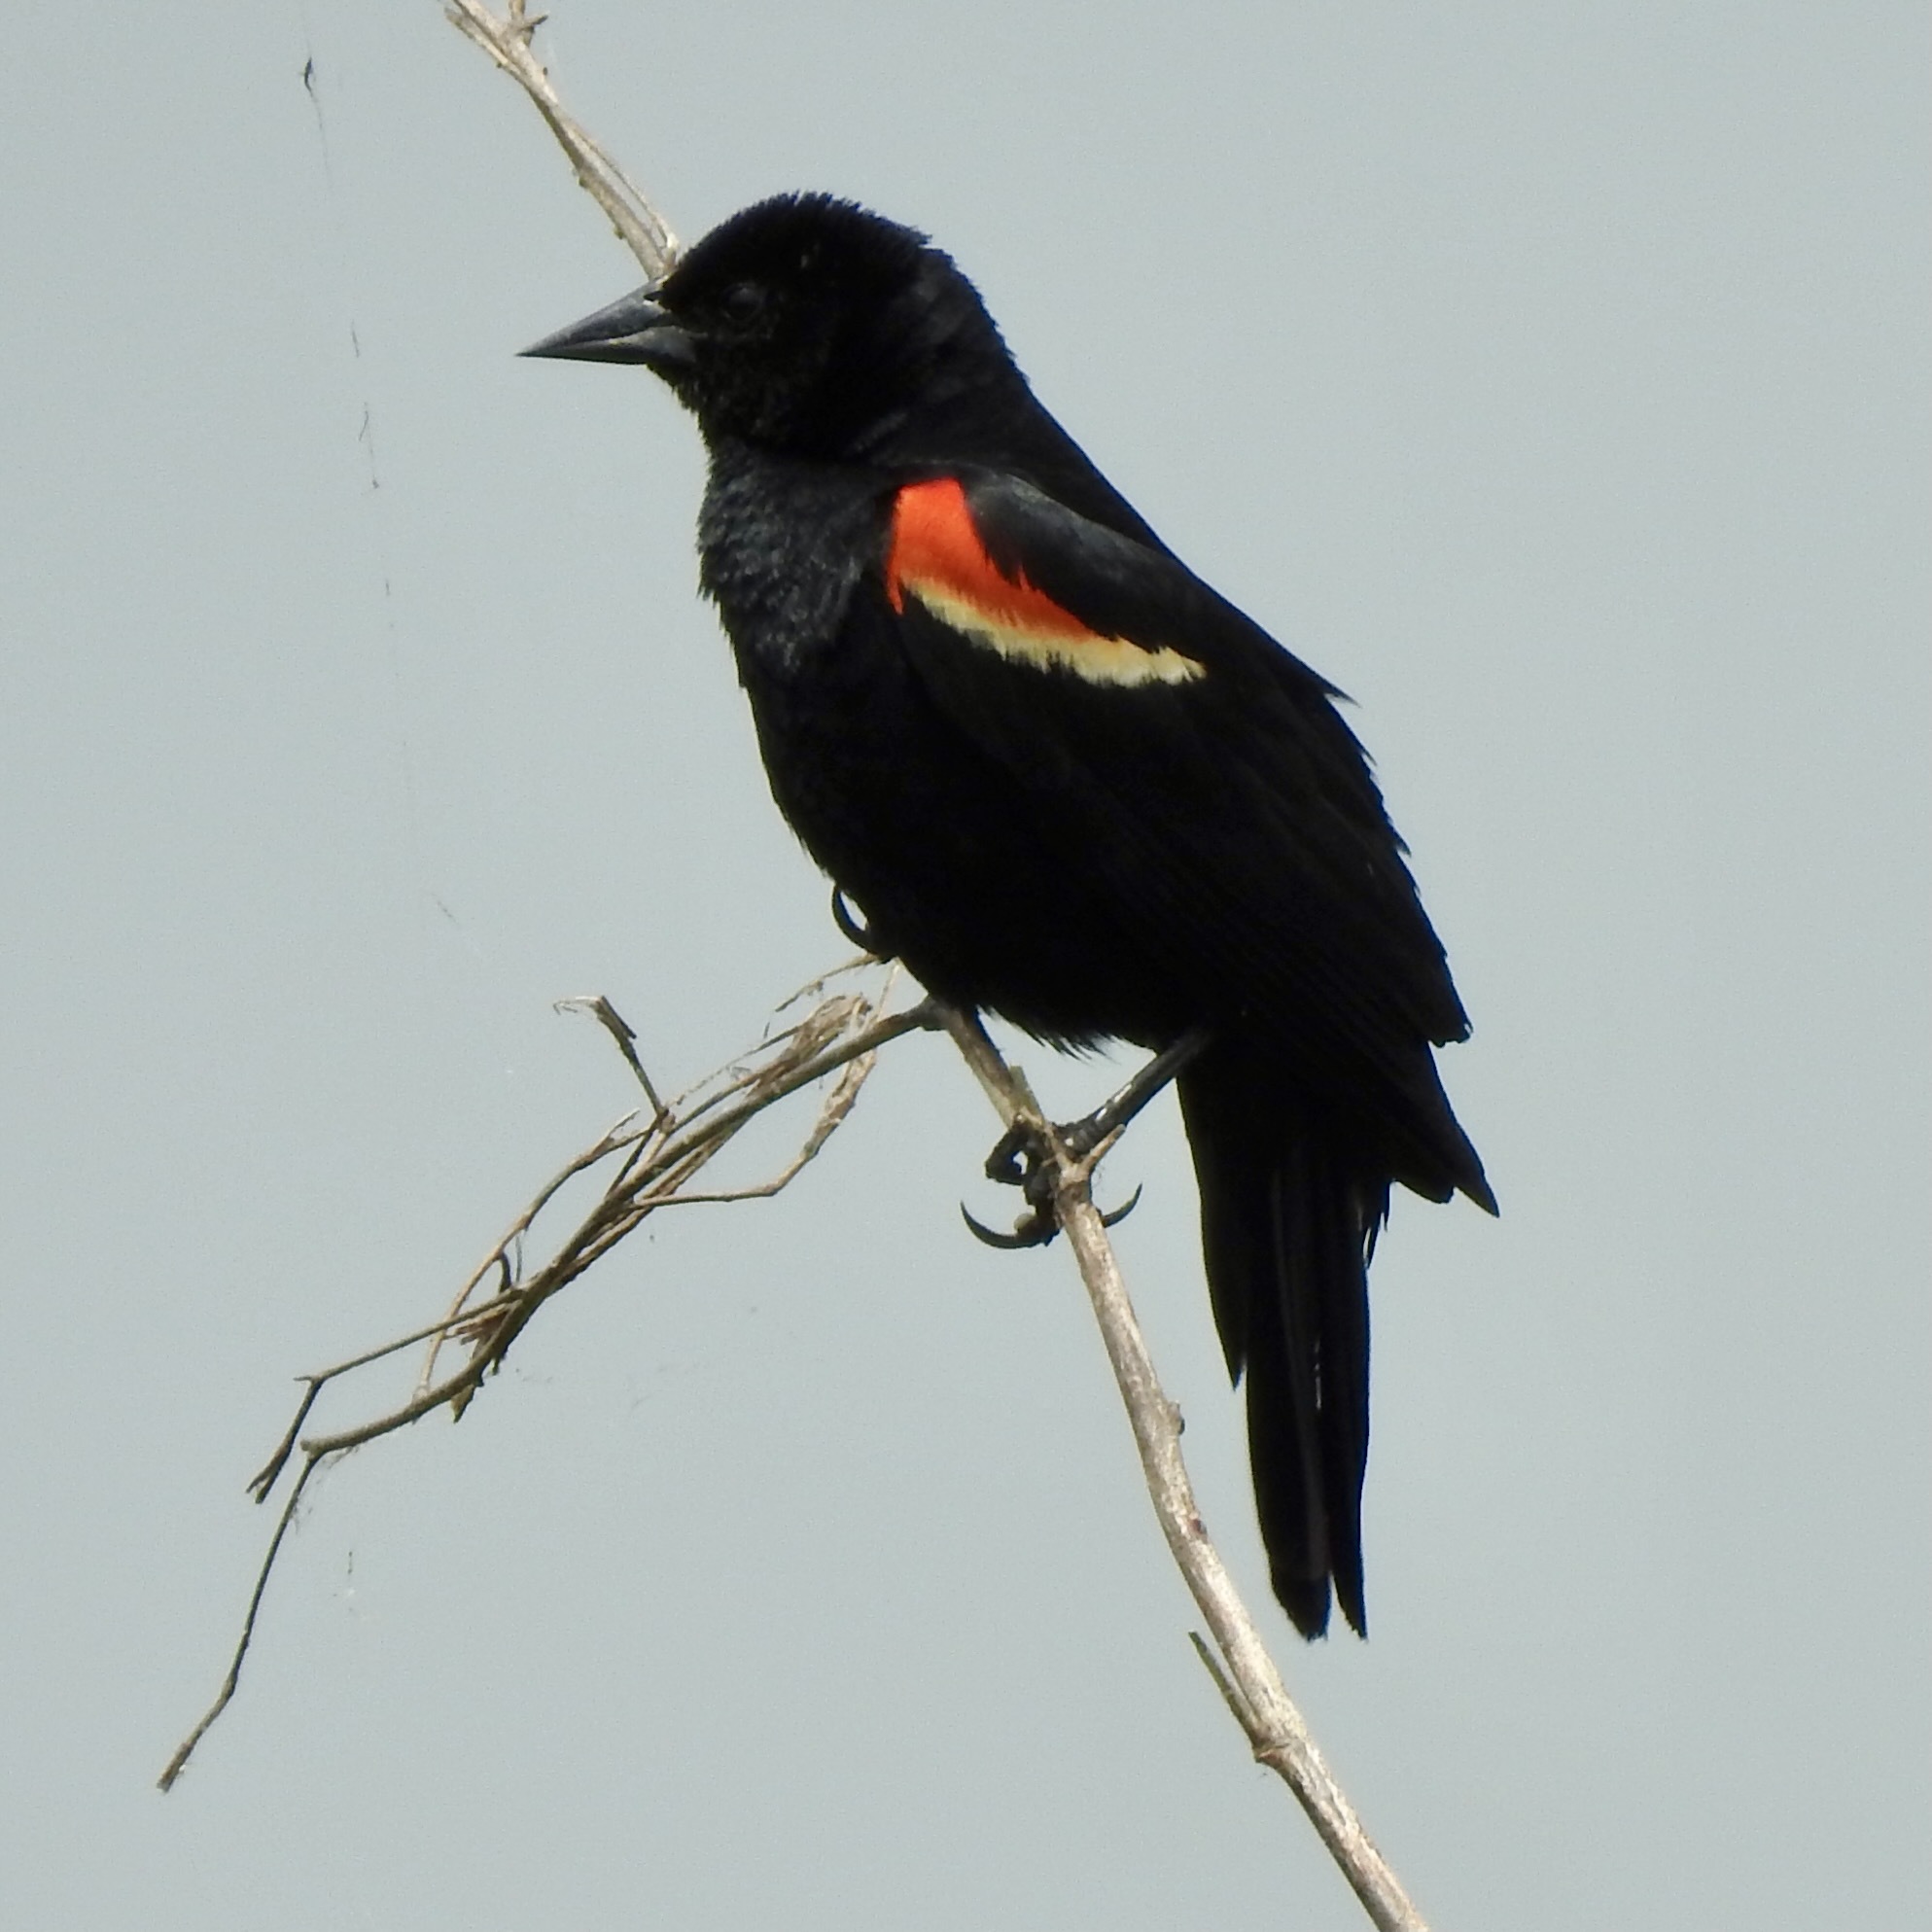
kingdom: Animalia
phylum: Chordata
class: Aves
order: Passeriformes
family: Icteridae
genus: Agelaius
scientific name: Agelaius phoeniceus
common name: Red-winged blackbird
